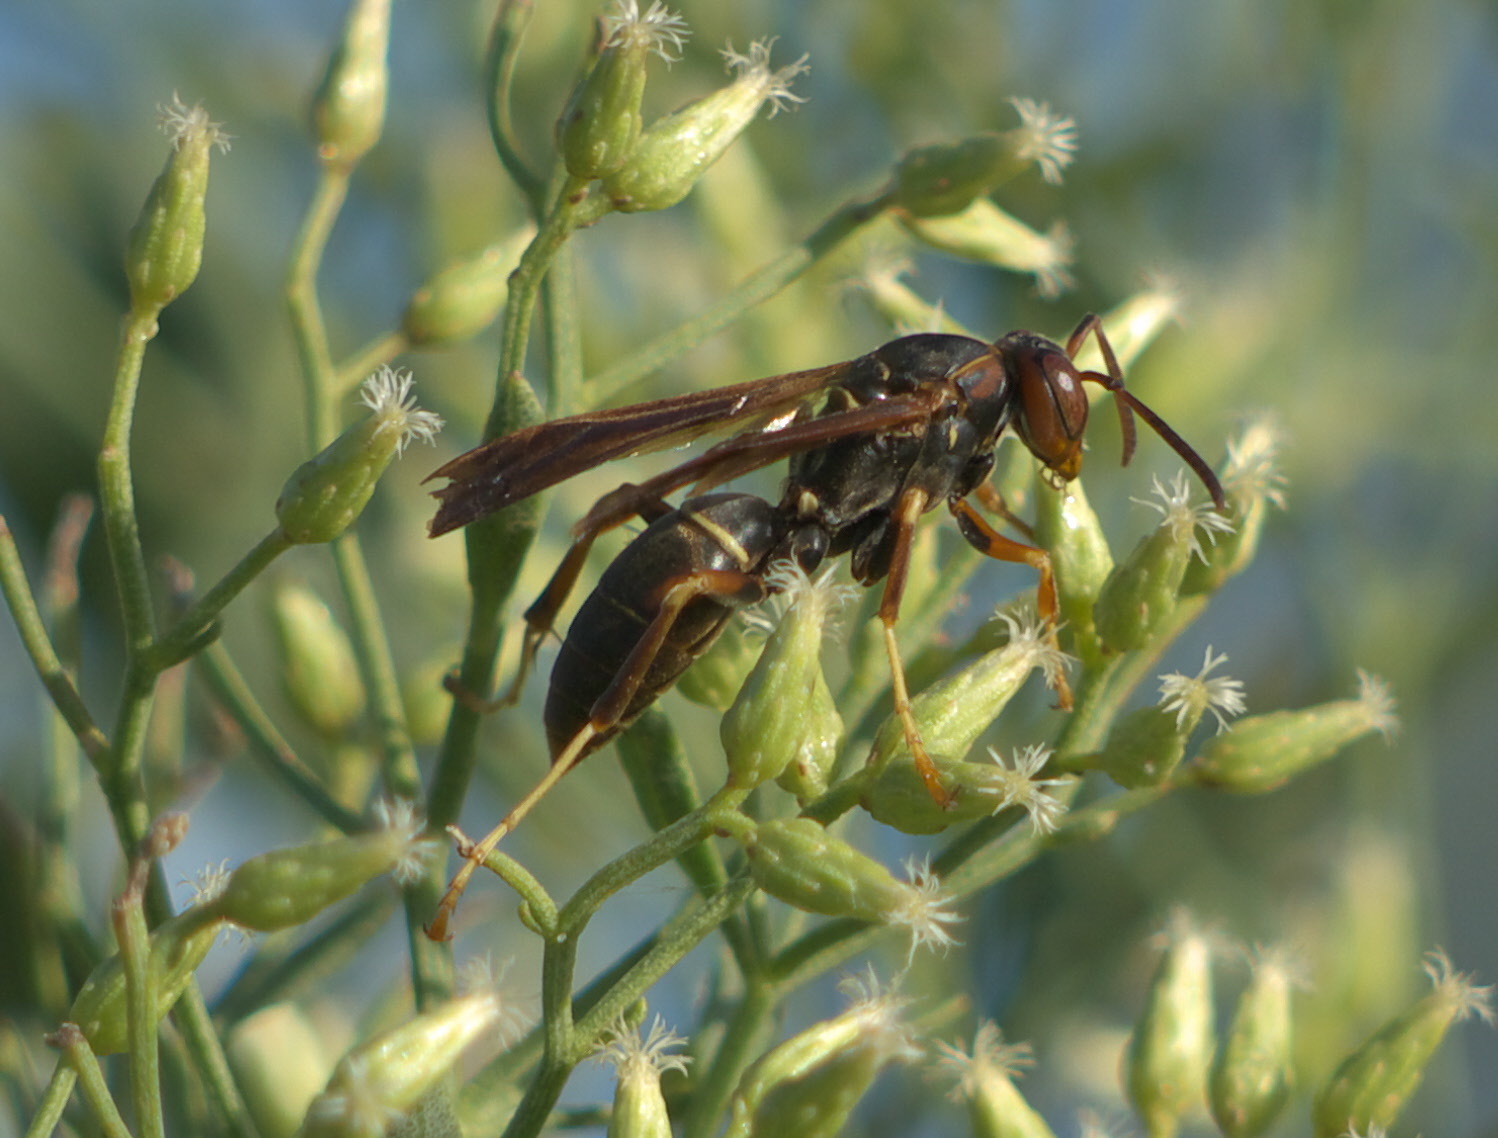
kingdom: Animalia
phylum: Arthropoda
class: Insecta
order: Hymenoptera
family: Eumenidae
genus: Polistes
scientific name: Polistes fuscatus
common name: Dark paper wasp
